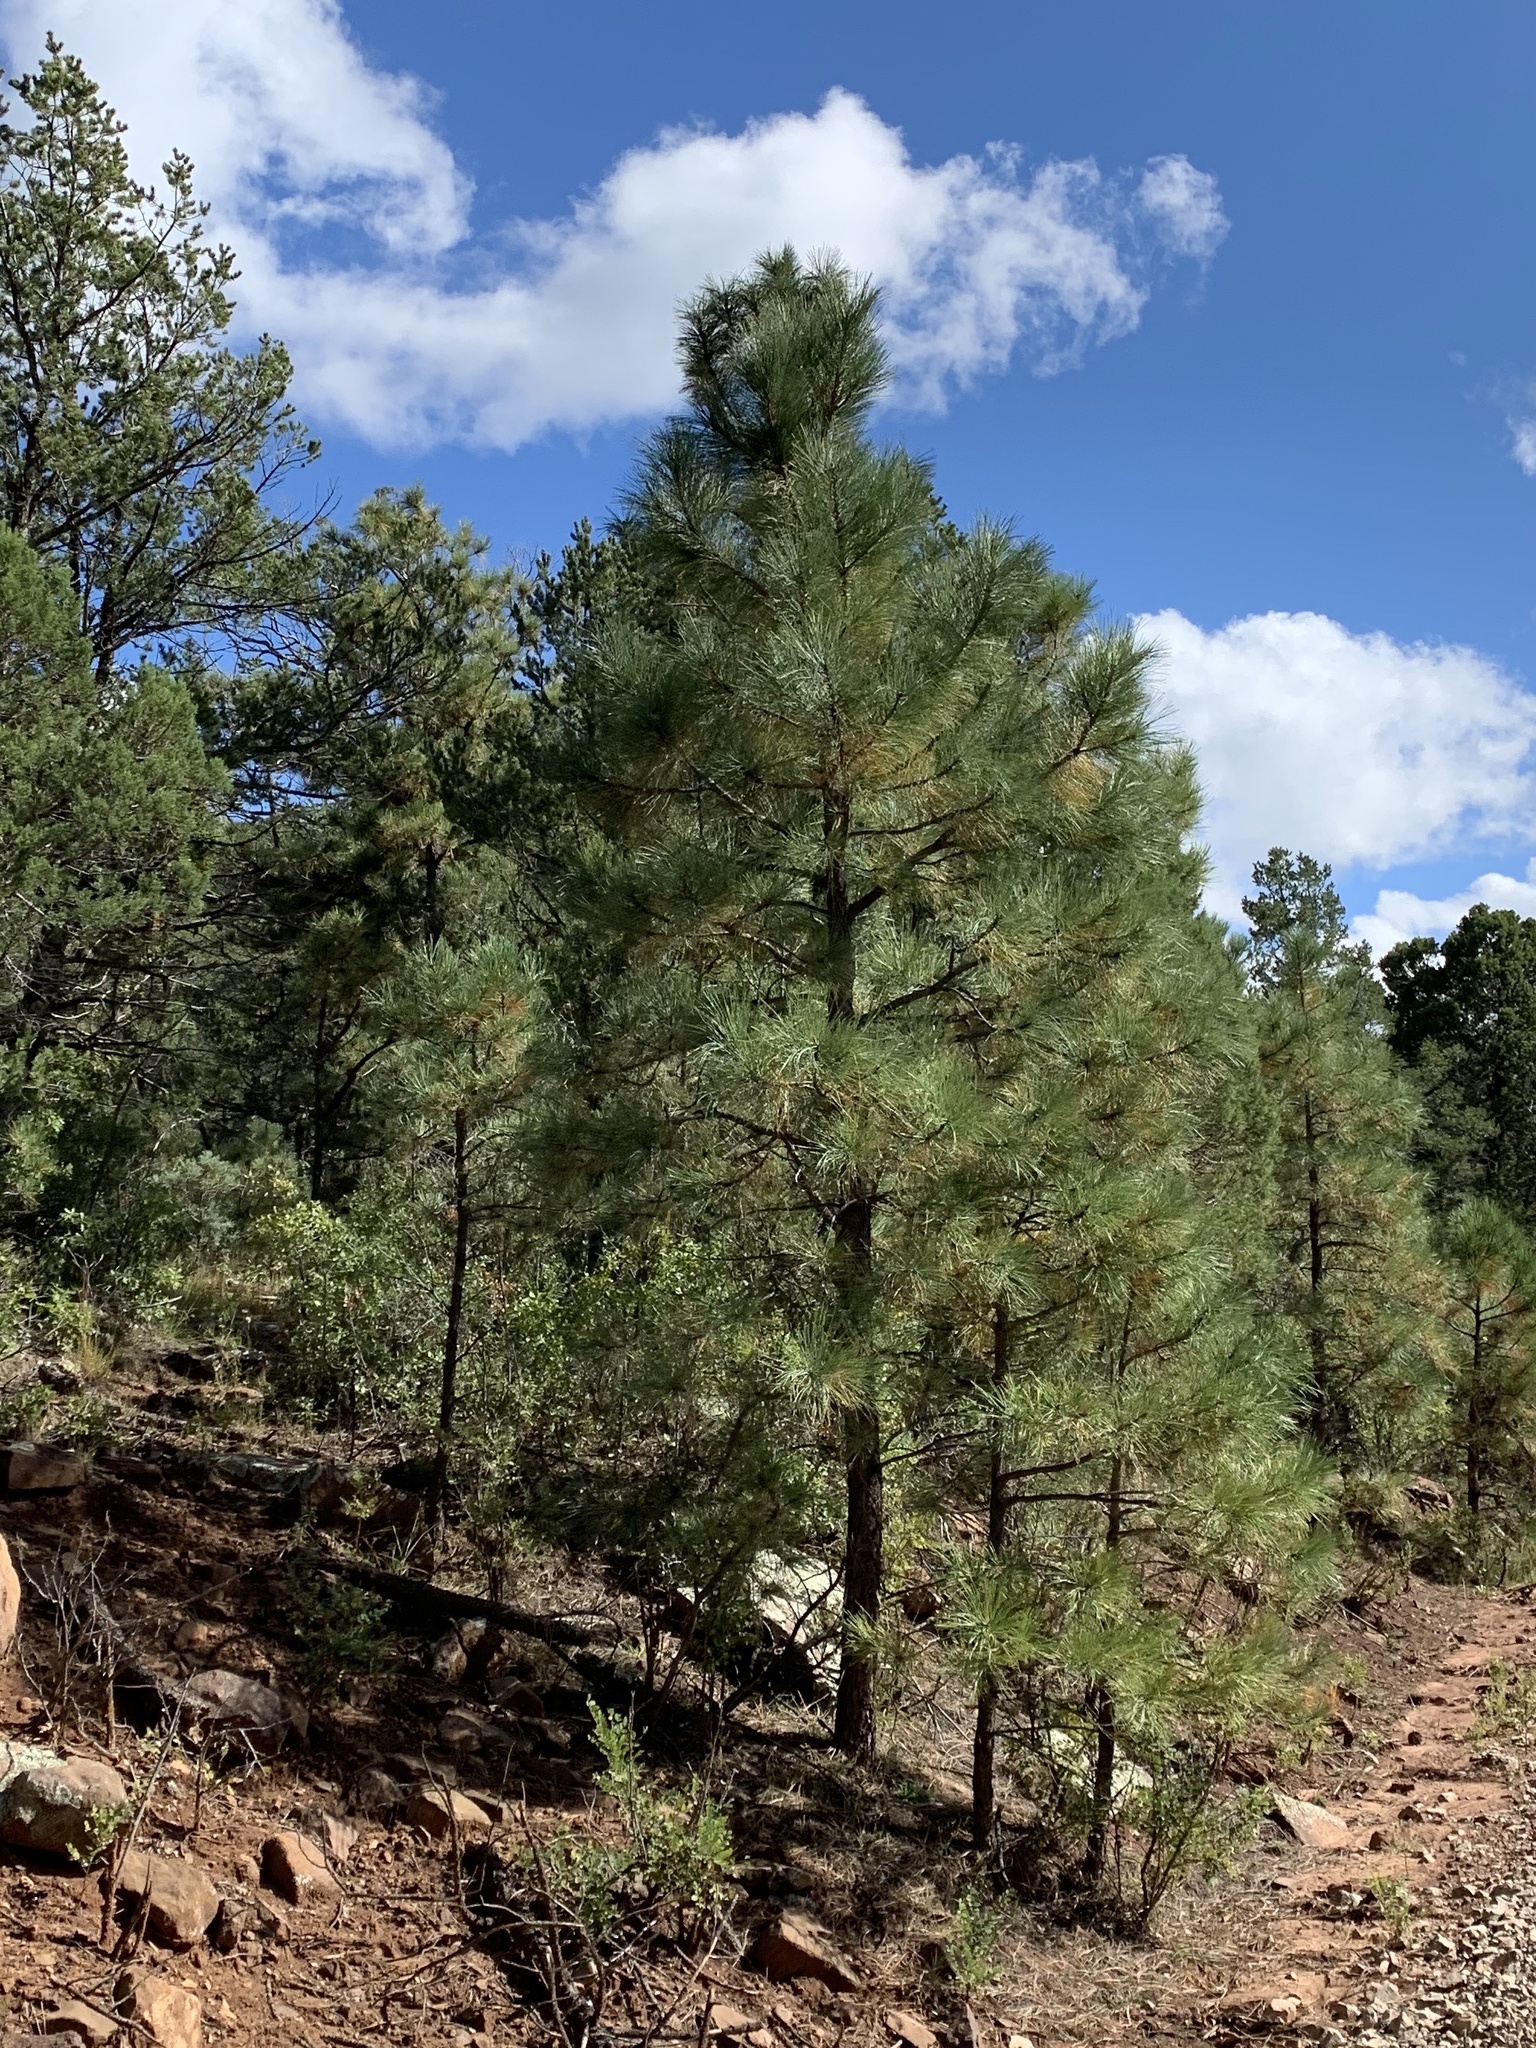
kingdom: Plantae
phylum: Tracheophyta
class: Pinopsida
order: Pinales
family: Pinaceae
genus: Pinus
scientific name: Pinus ponderosa
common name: Western yellow-pine
